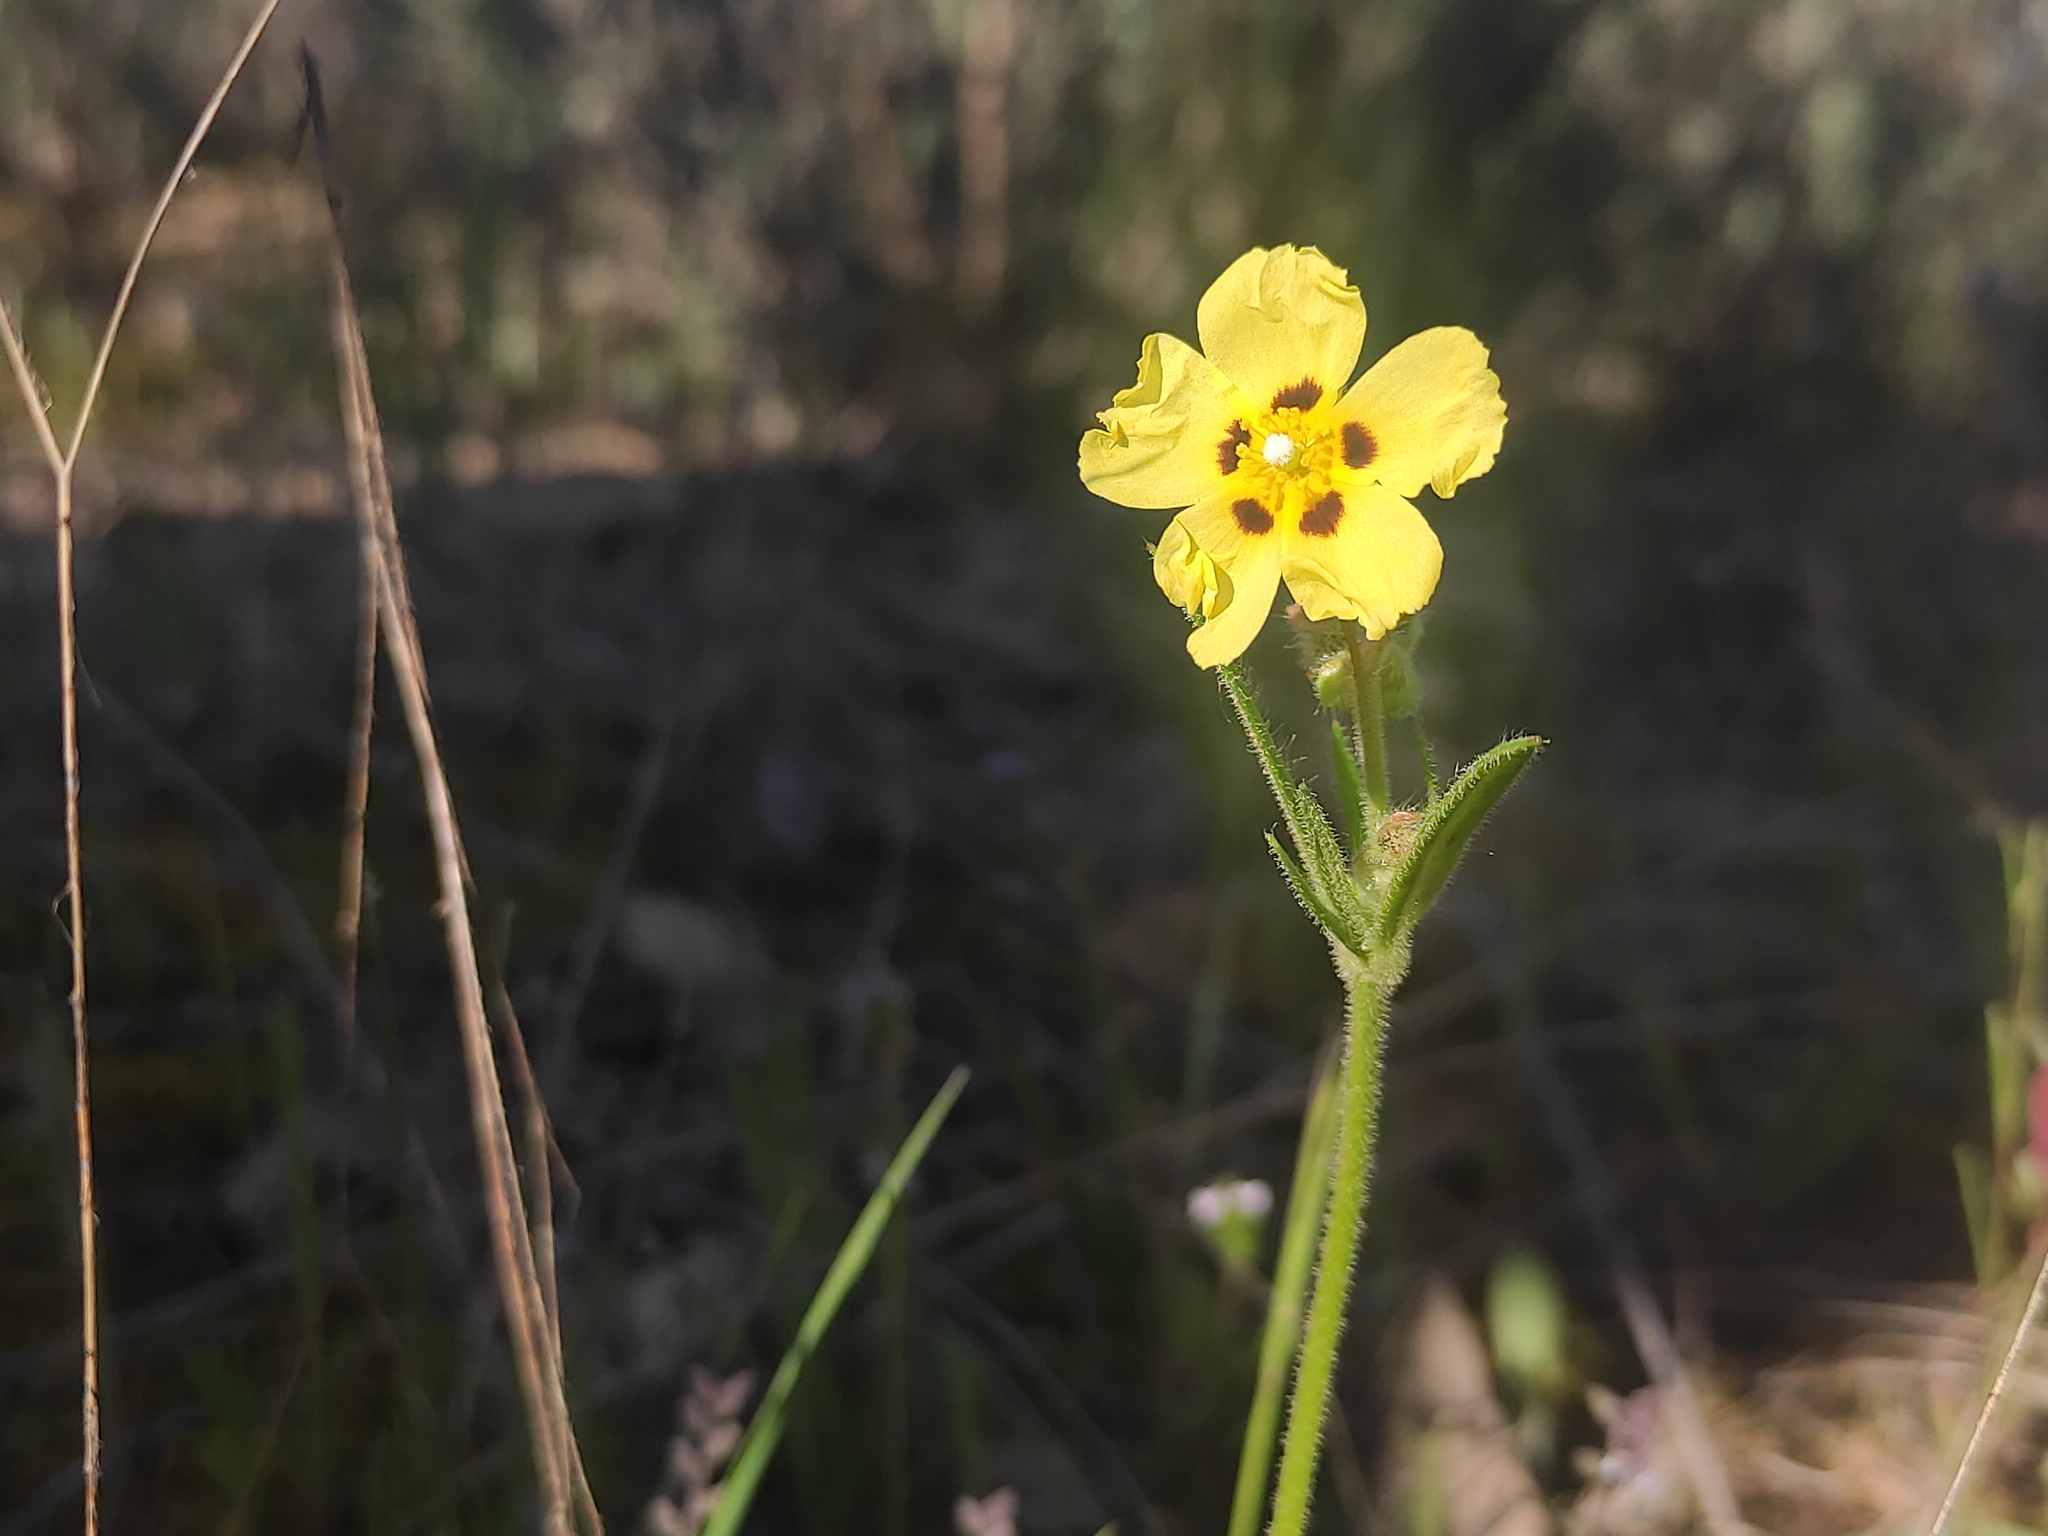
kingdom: Plantae
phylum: Tracheophyta
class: Magnoliopsida
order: Malvales
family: Cistaceae
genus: Tuberaria
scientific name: Tuberaria guttata
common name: Spotted rock-rose
